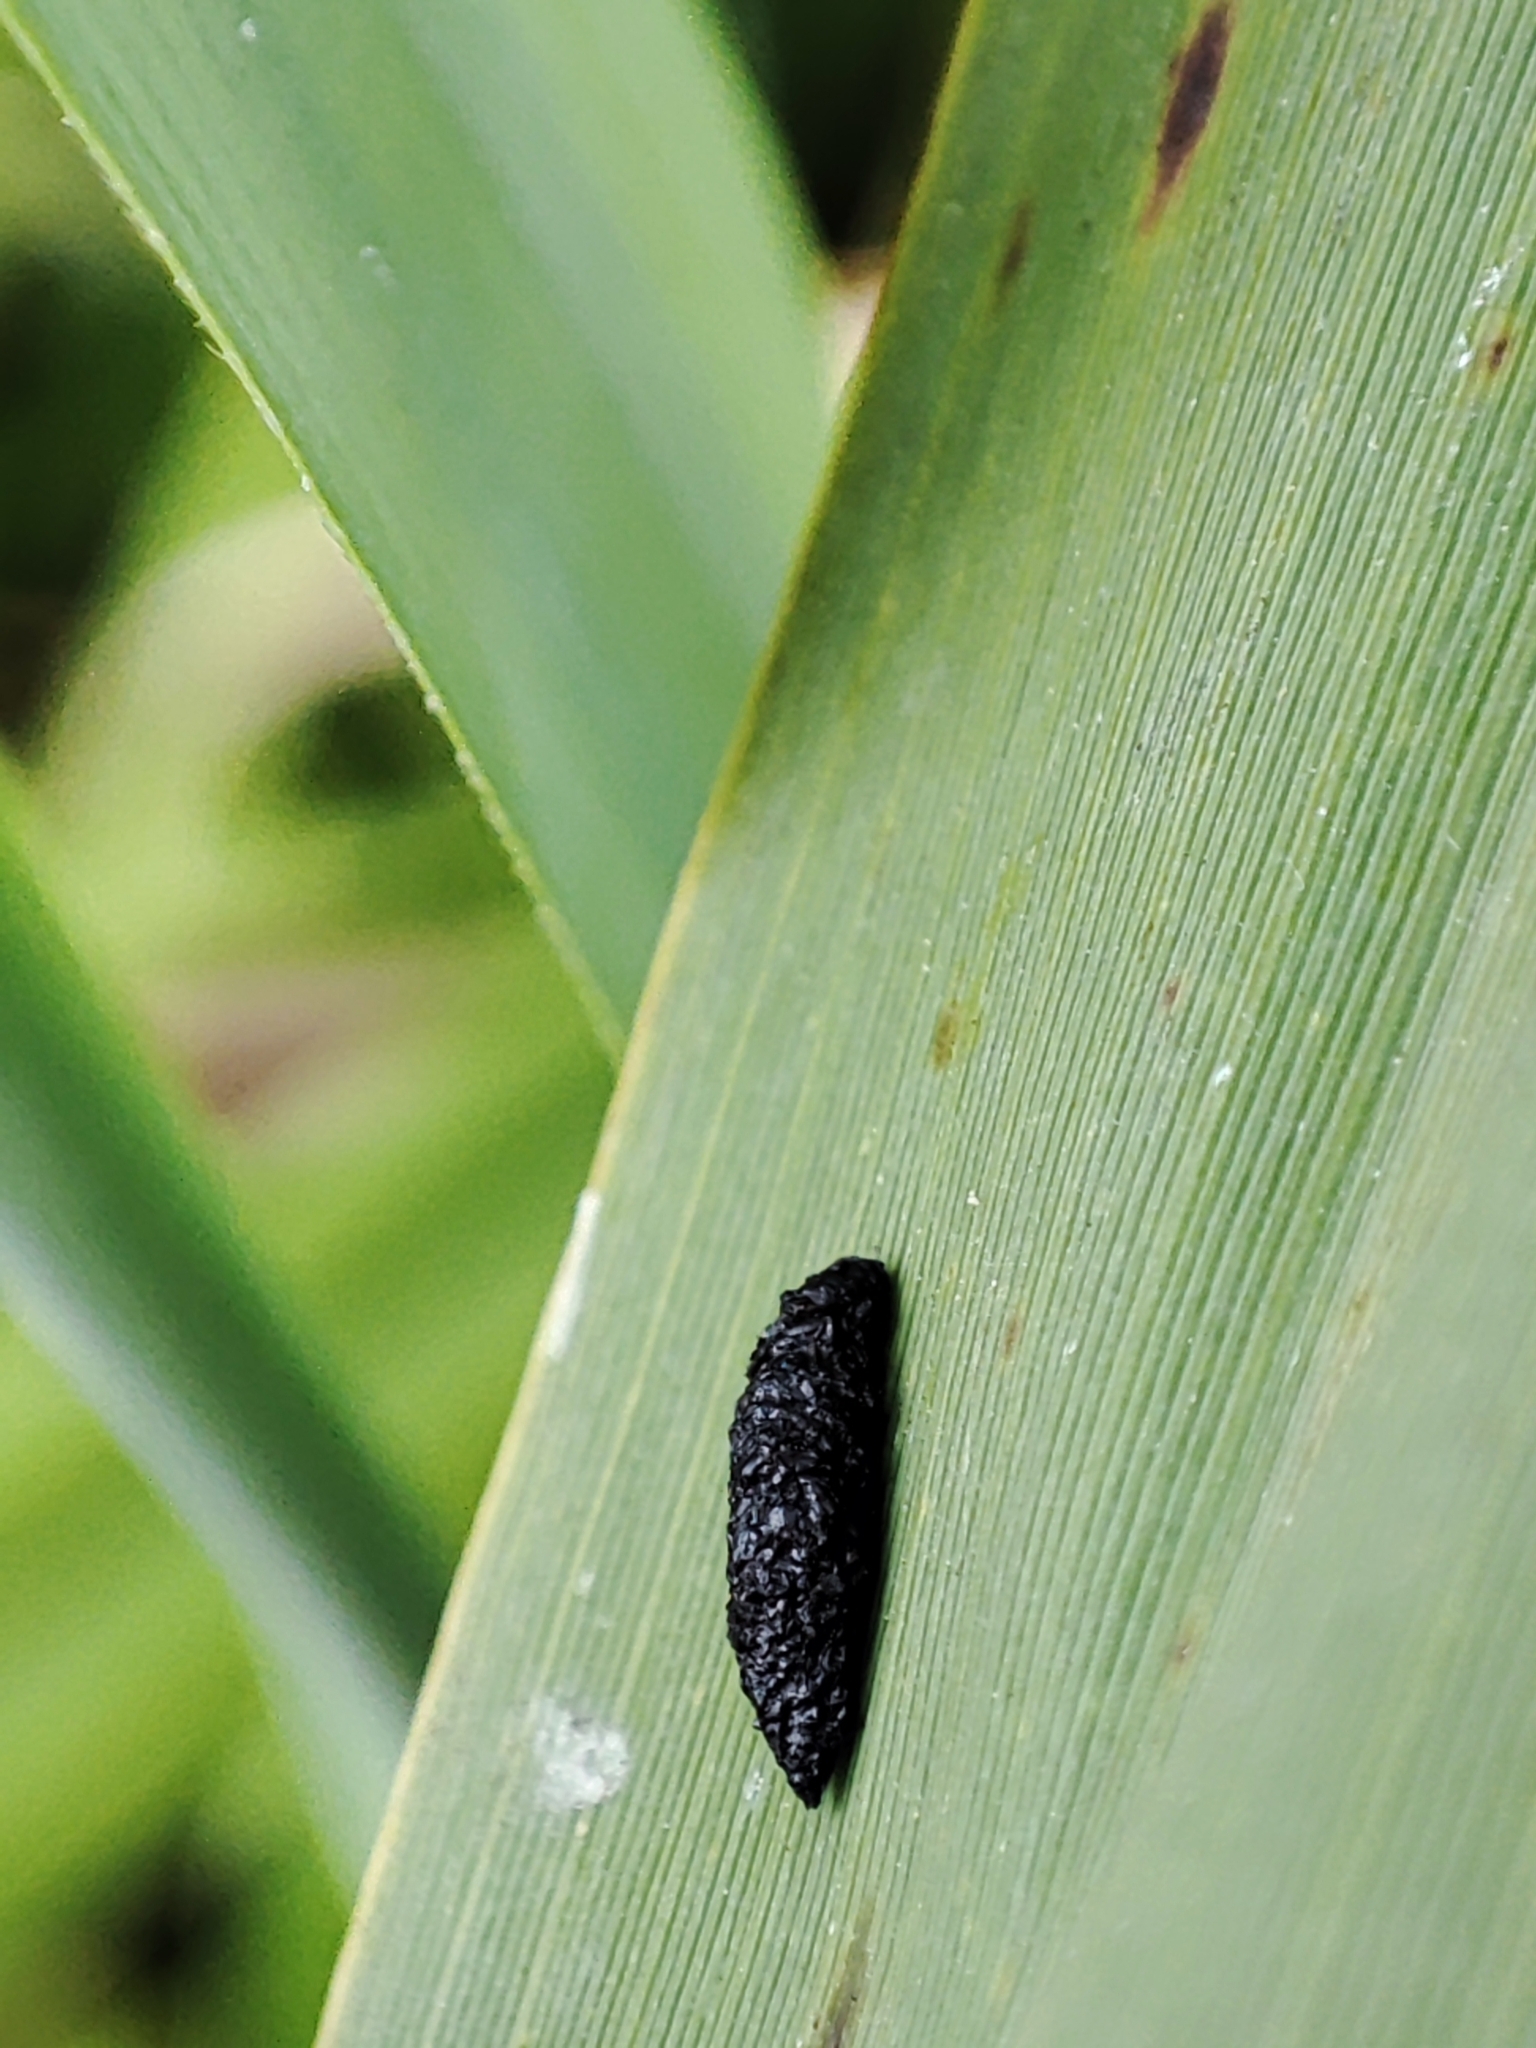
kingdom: Plantae
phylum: Tracheophyta
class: Liliopsida
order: Poales
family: Poaceae
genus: Phragmites
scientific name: Phragmites australis
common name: Common reed
